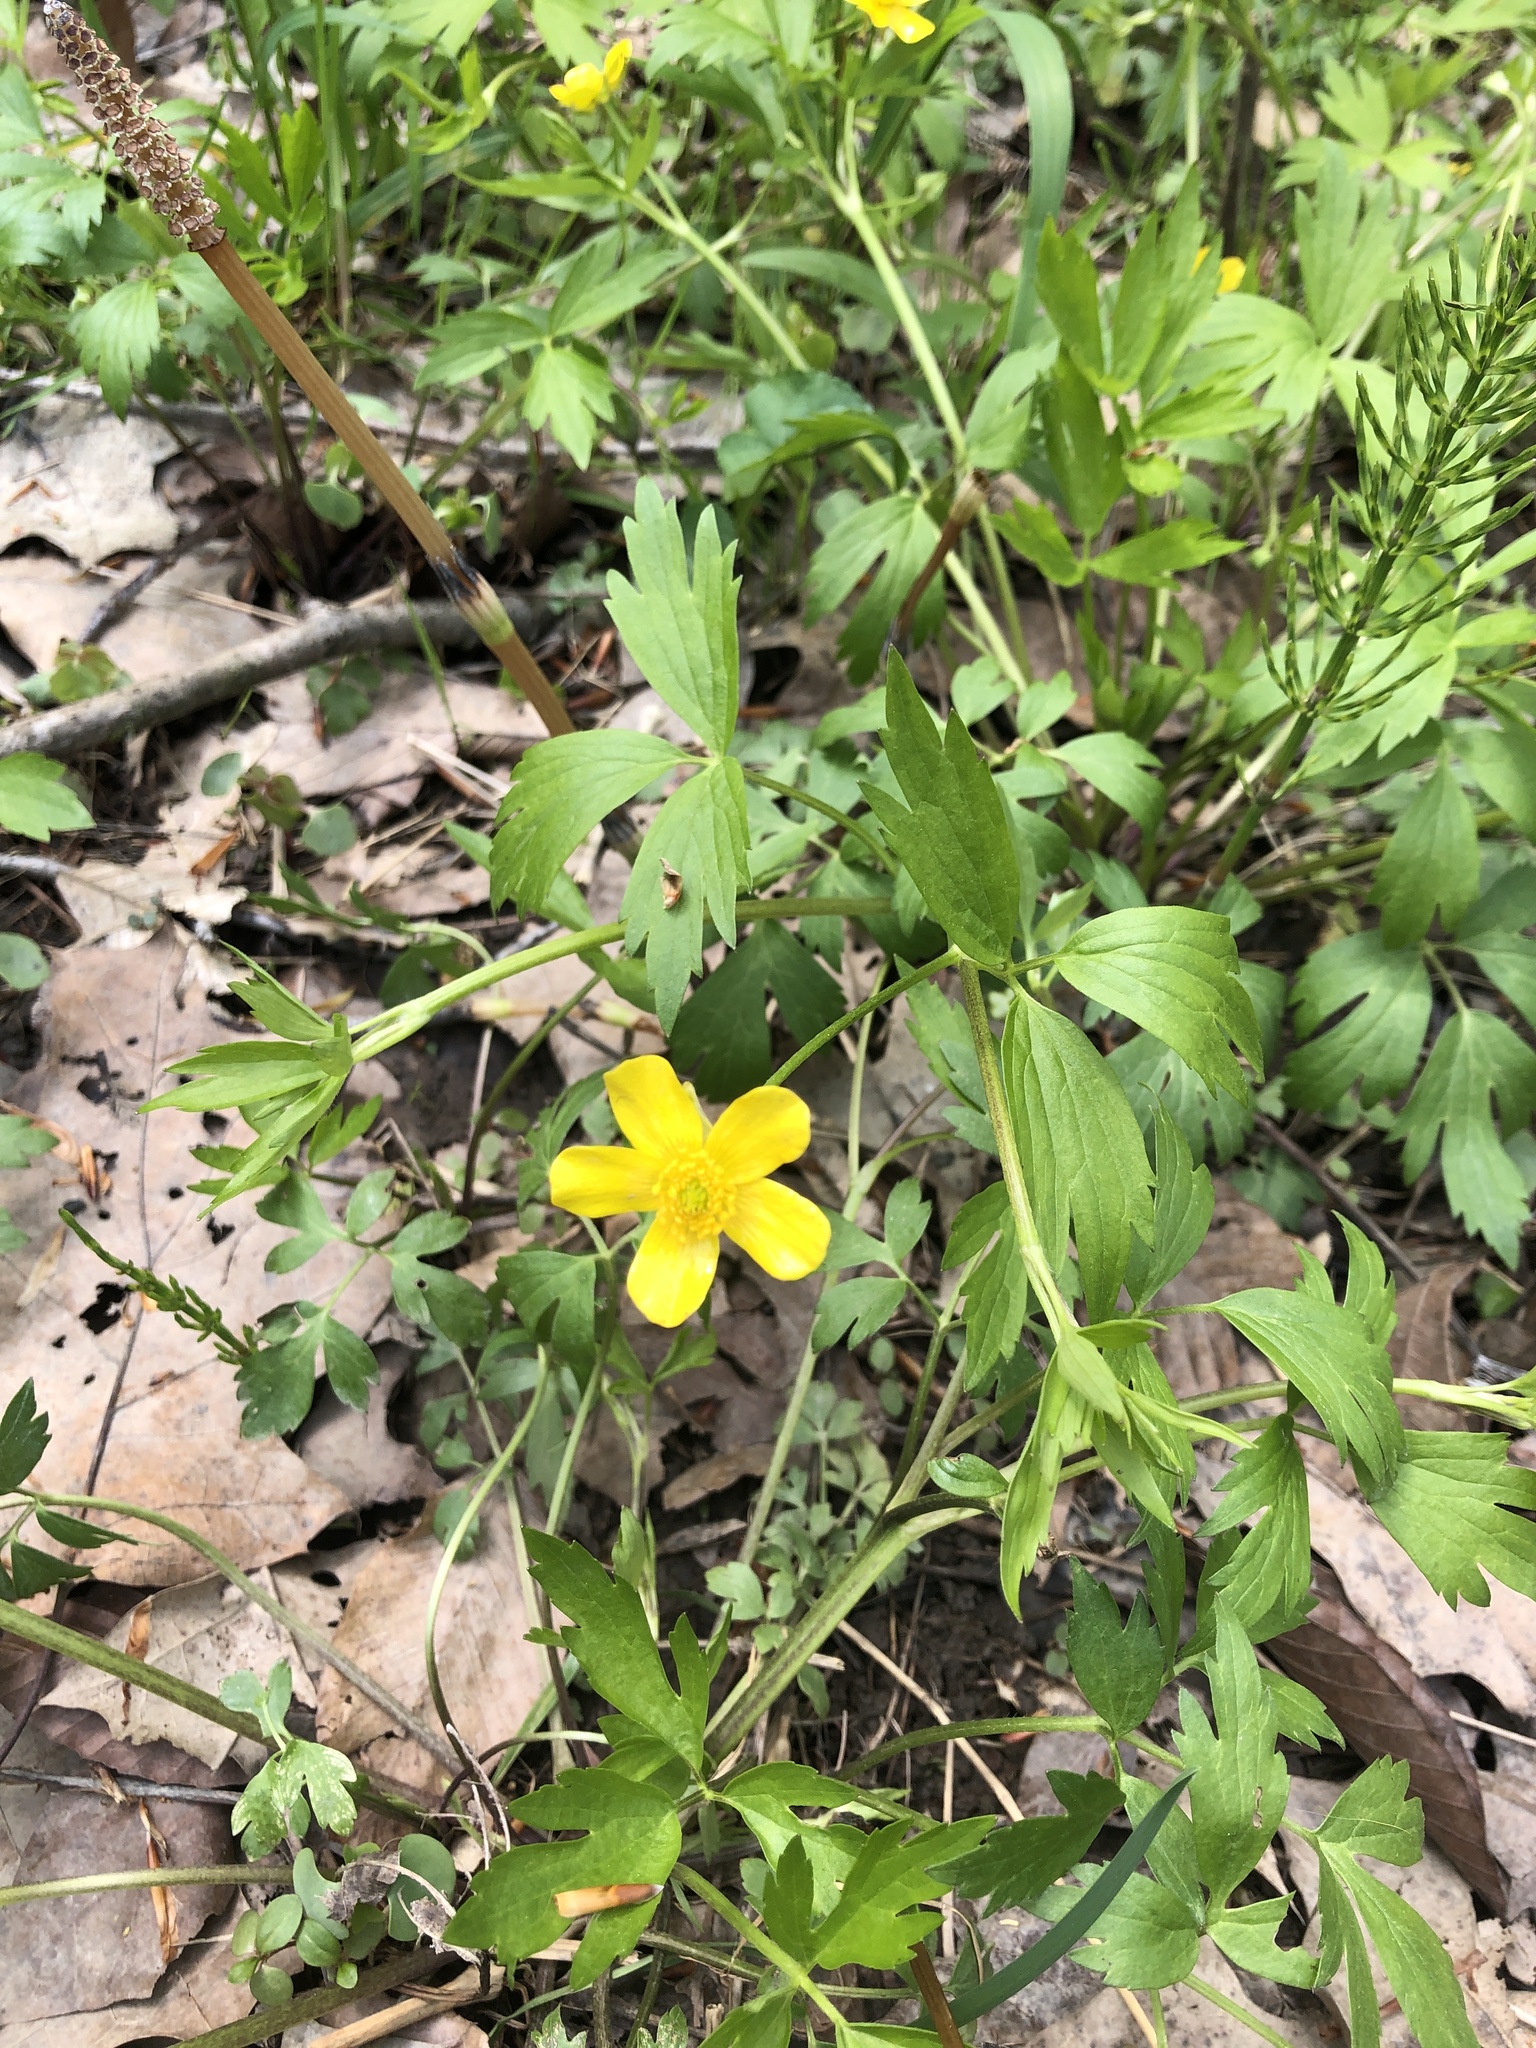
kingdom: Plantae
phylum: Tracheophyta
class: Magnoliopsida
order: Ranunculales
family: Ranunculaceae
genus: Ranunculus
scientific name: Ranunculus hispidus
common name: Bristly buttercup
